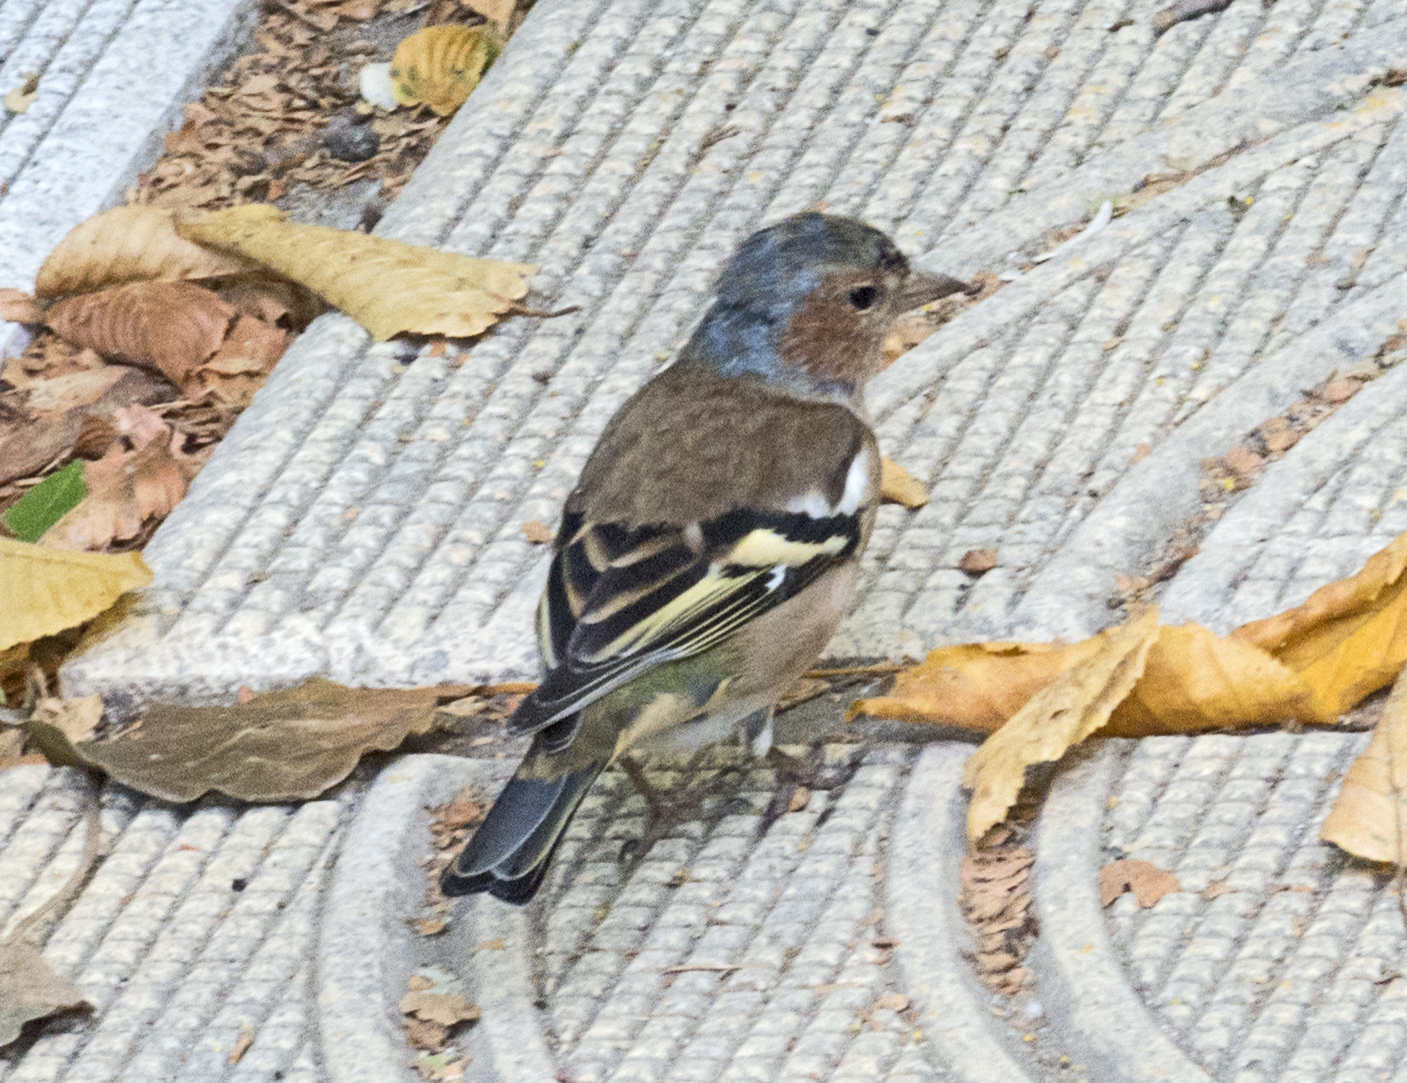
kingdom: Animalia
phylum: Chordata
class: Aves
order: Passeriformes
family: Fringillidae
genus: Fringilla
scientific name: Fringilla coelebs
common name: Common chaffinch
